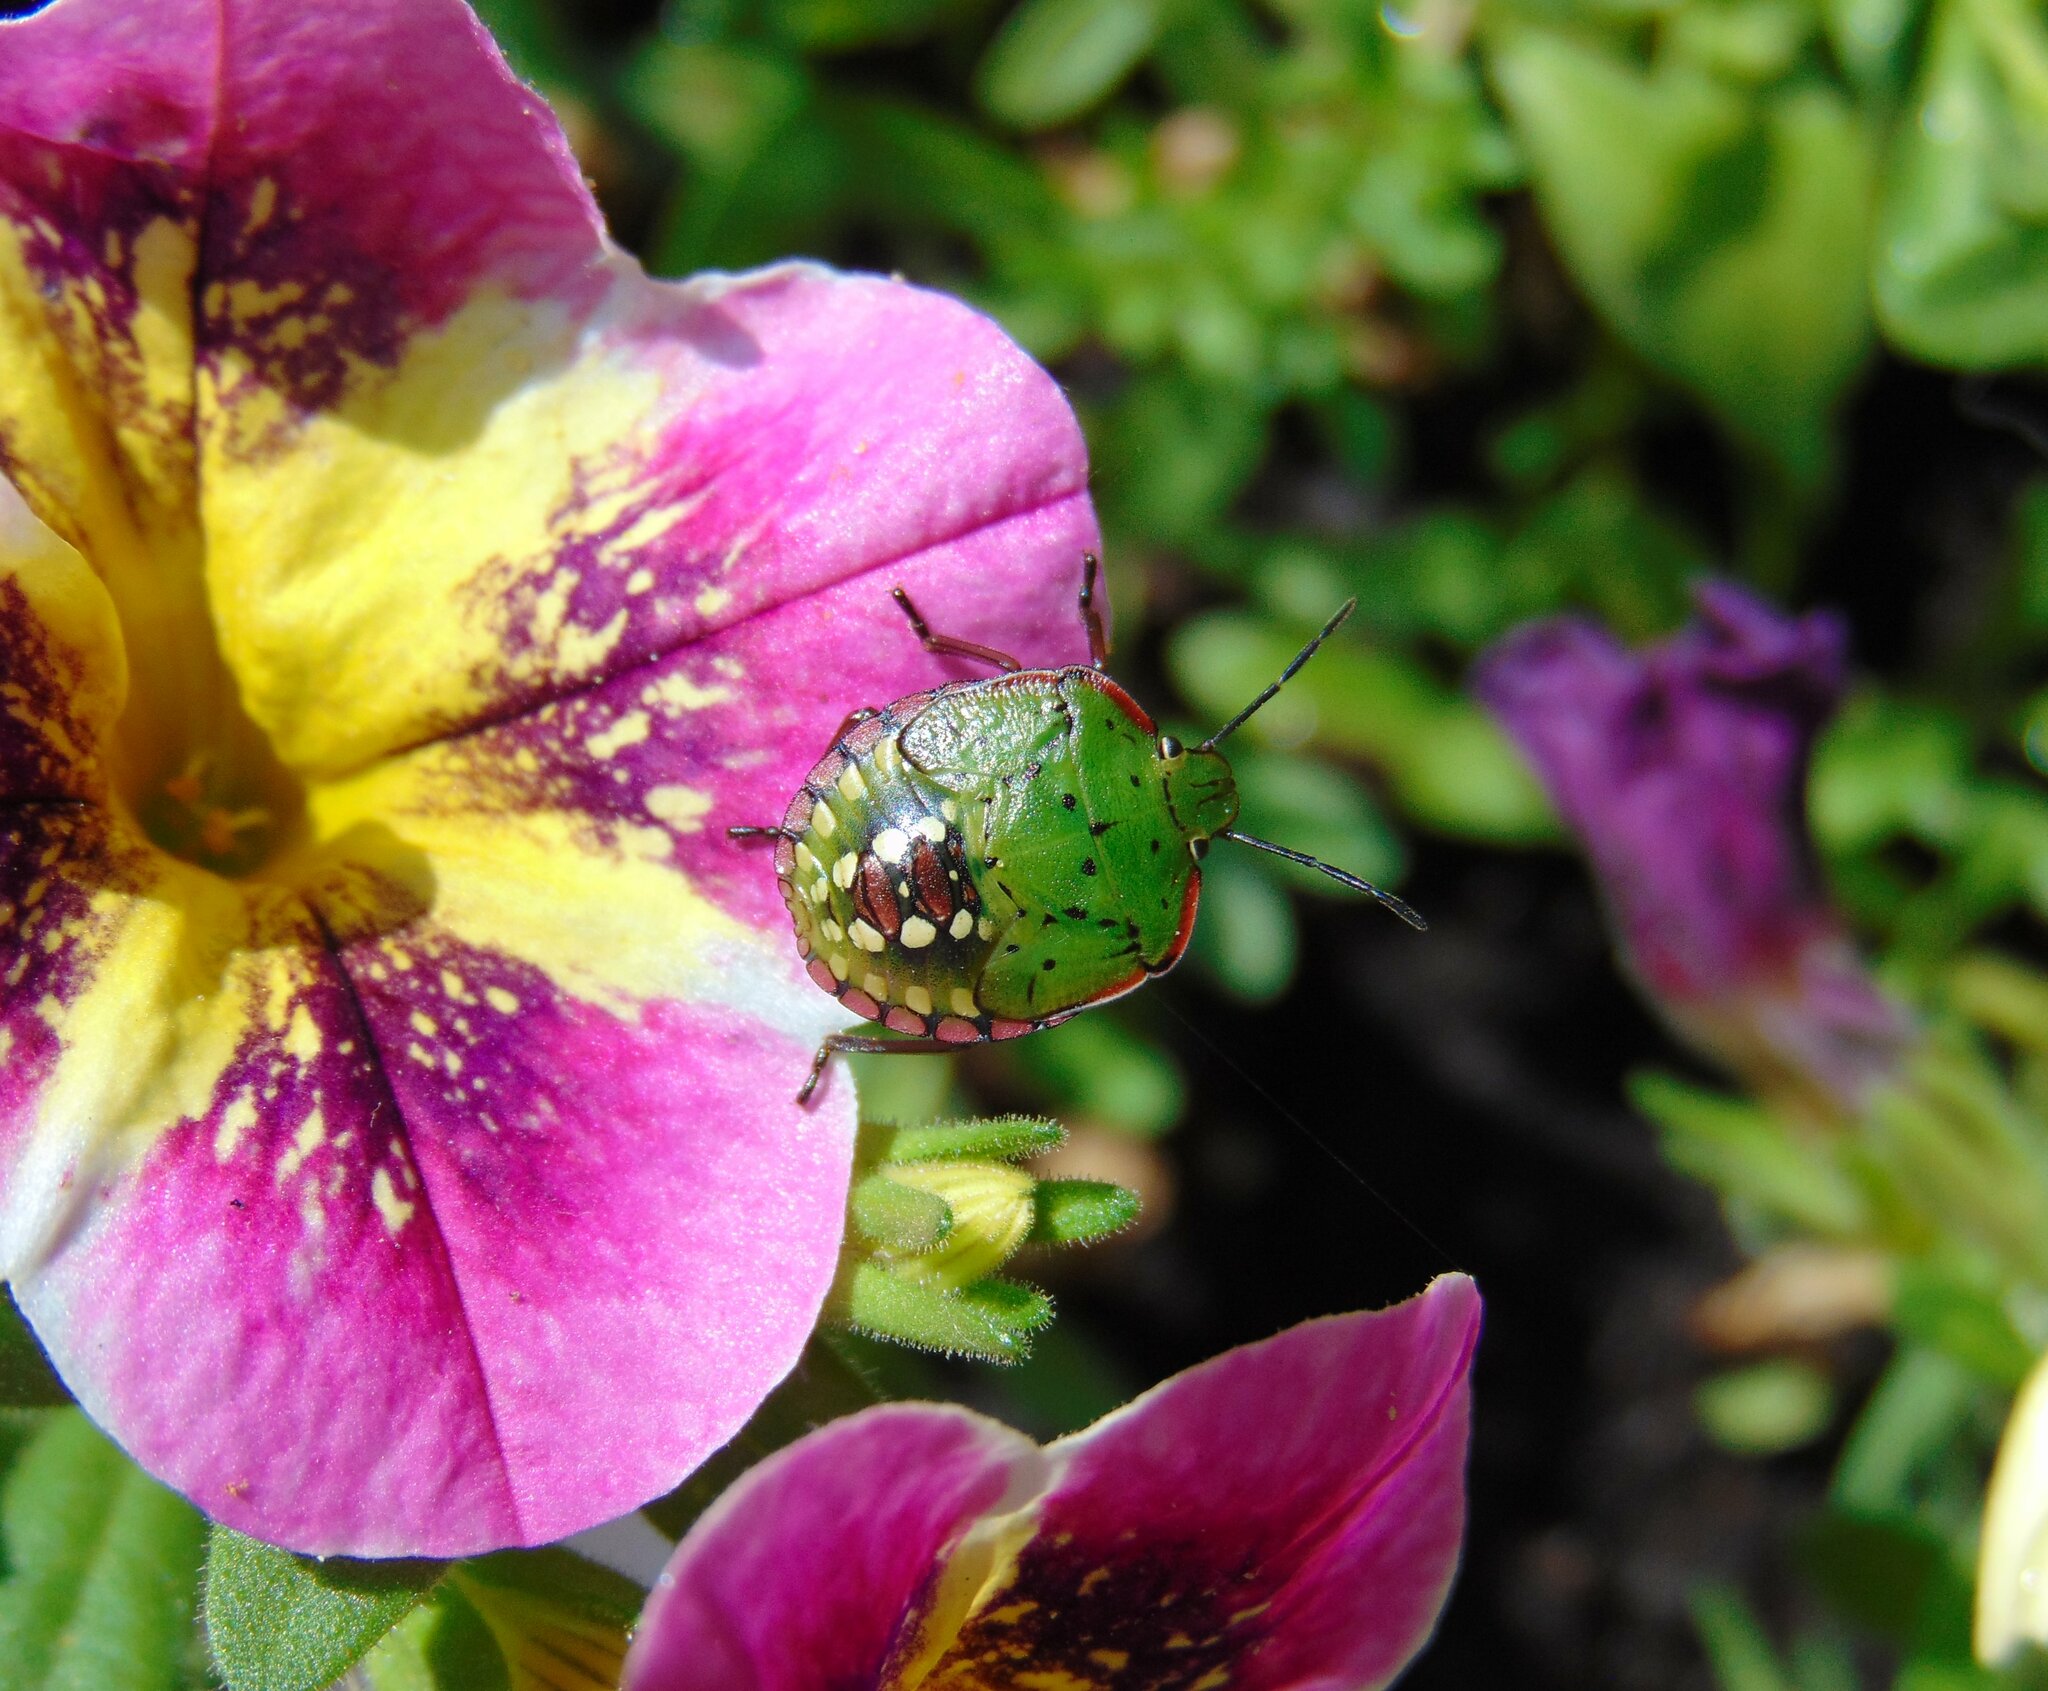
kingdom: Animalia
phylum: Arthropoda
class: Insecta
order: Hemiptera
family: Pentatomidae
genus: Nezara
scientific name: Nezara viridula
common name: Southern green stink bug
